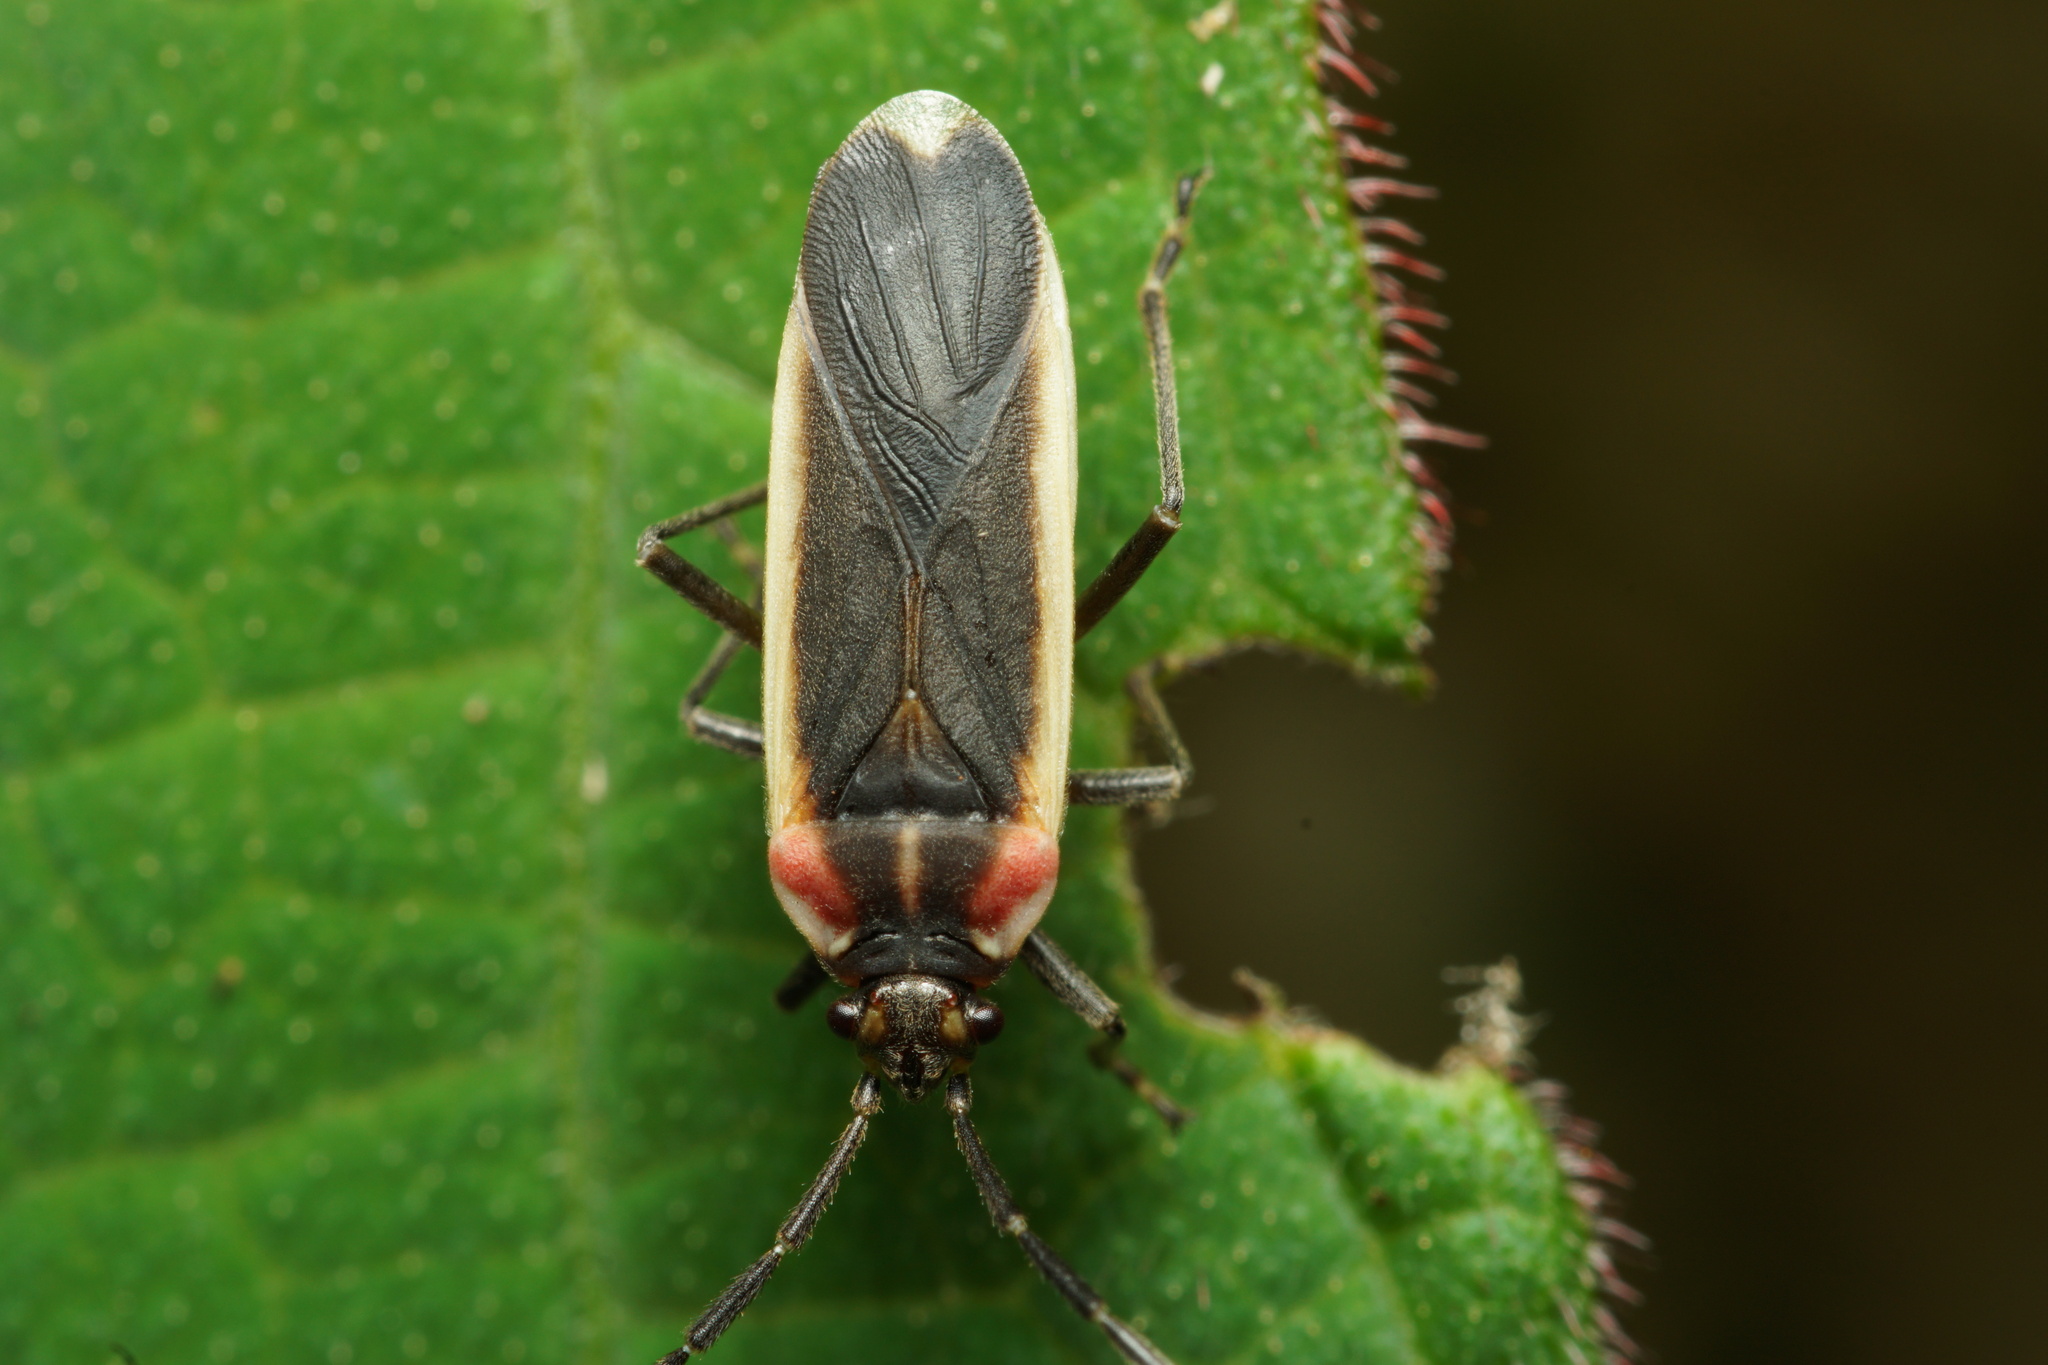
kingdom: Animalia
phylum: Arthropoda
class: Insecta
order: Hemiptera
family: Lygaeidae
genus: Acroleucus
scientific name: Acroleucus coxalis
